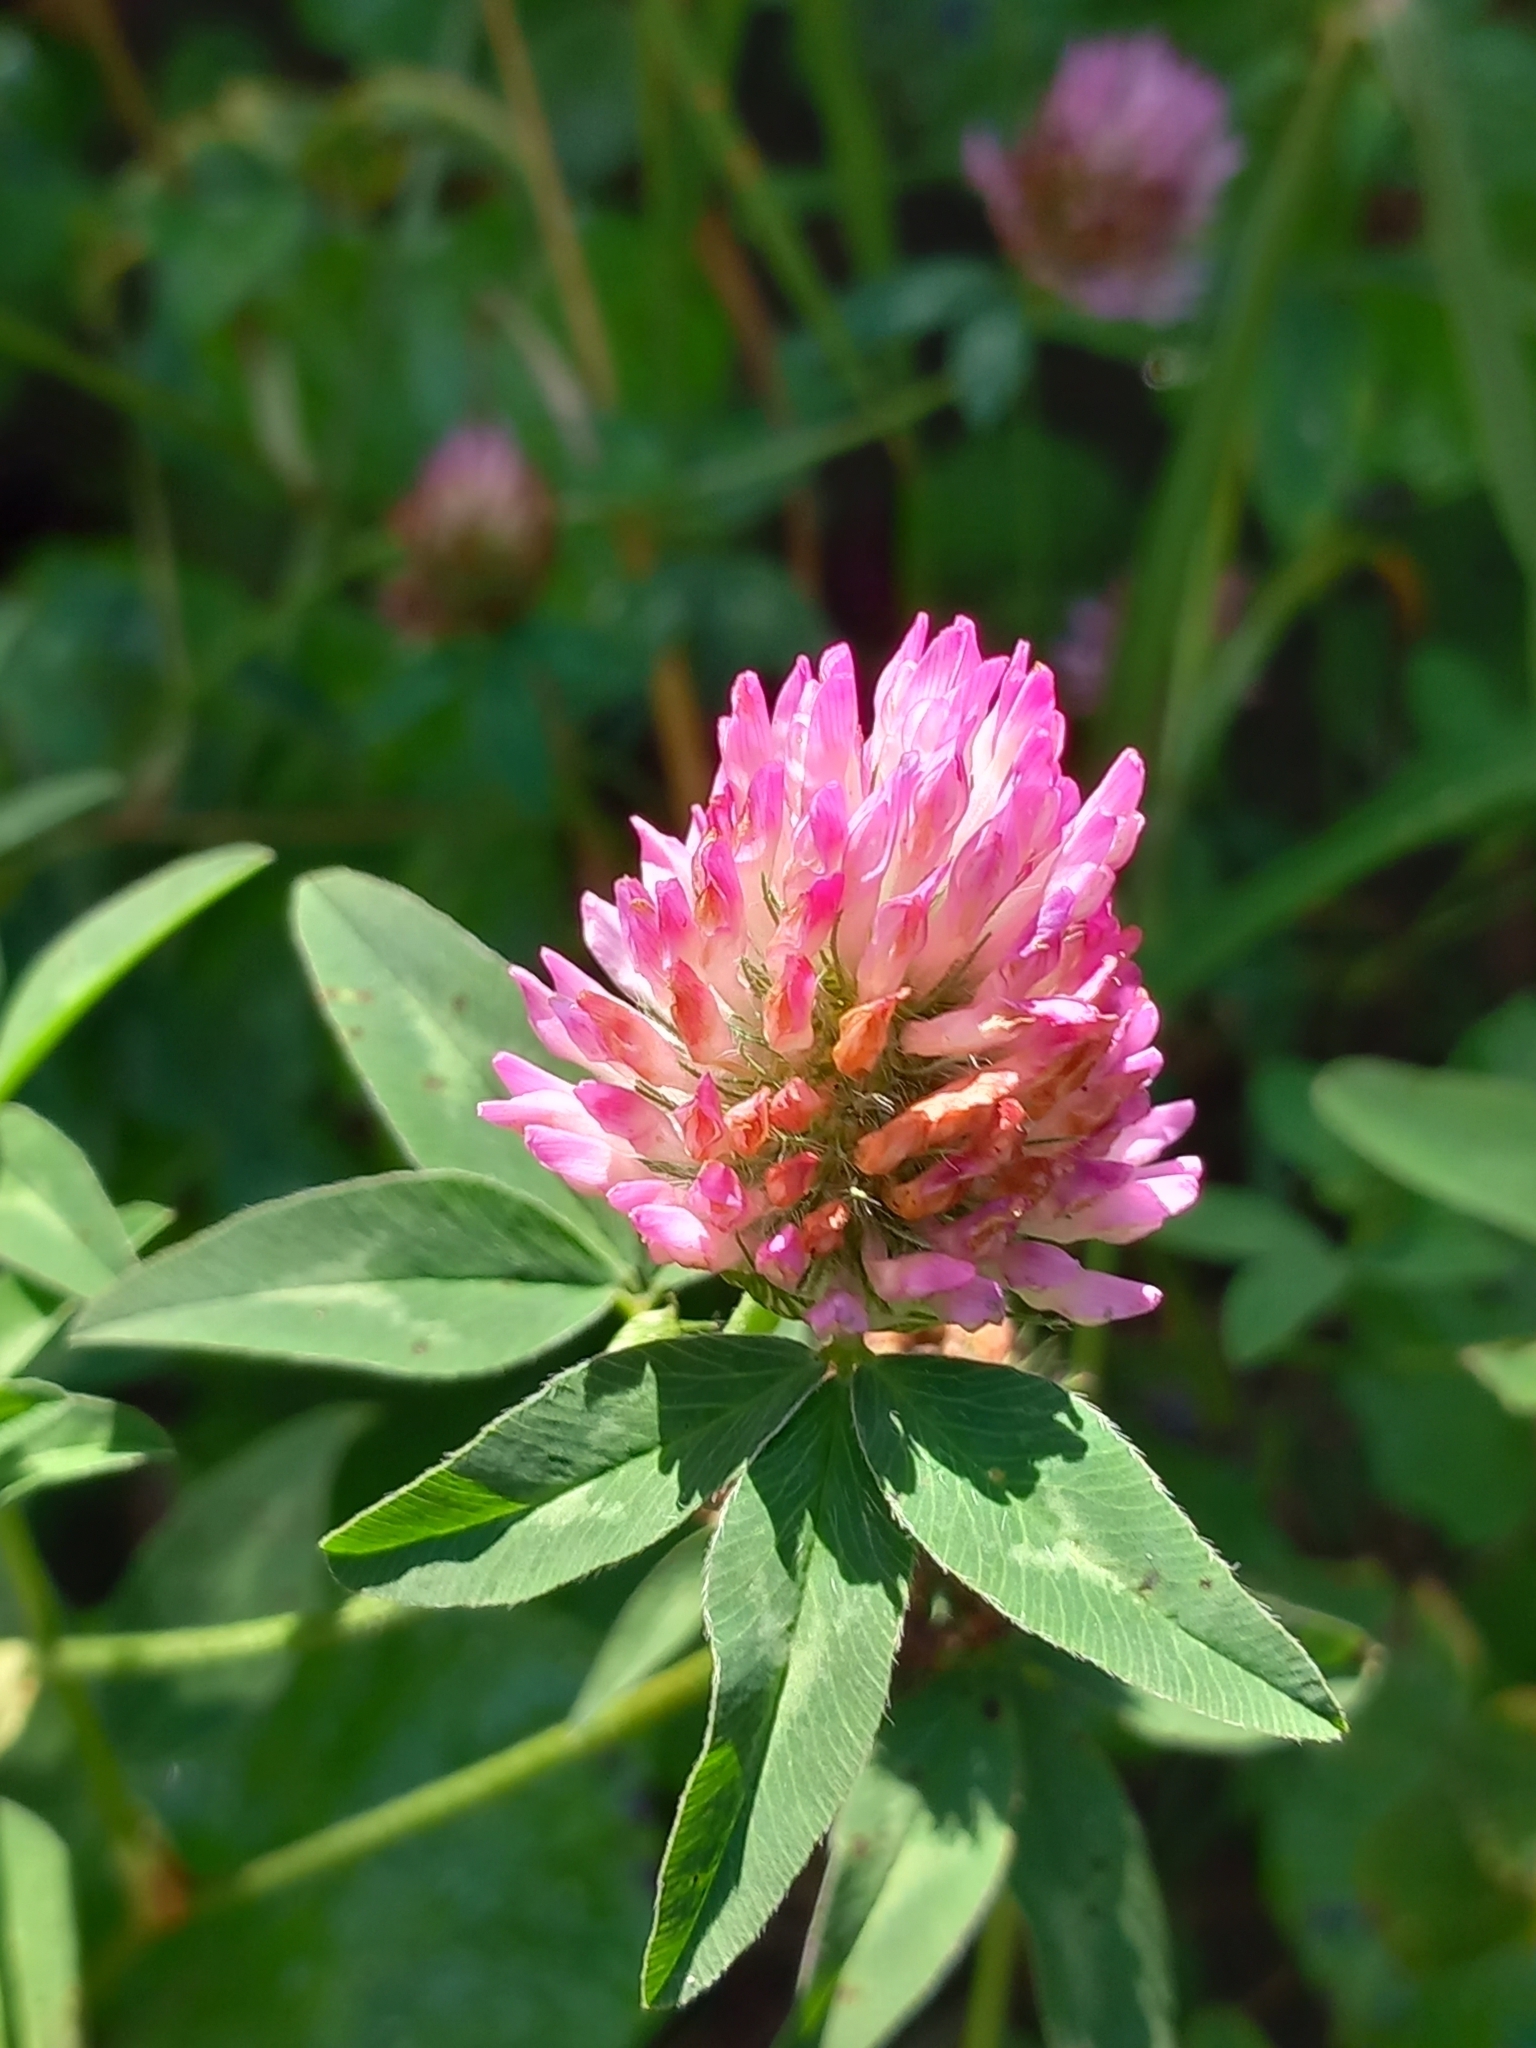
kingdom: Plantae
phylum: Tracheophyta
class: Magnoliopsida
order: Fabales
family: Fabaceae
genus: Trifolium
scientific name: Trifolium pratense
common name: Red clover
